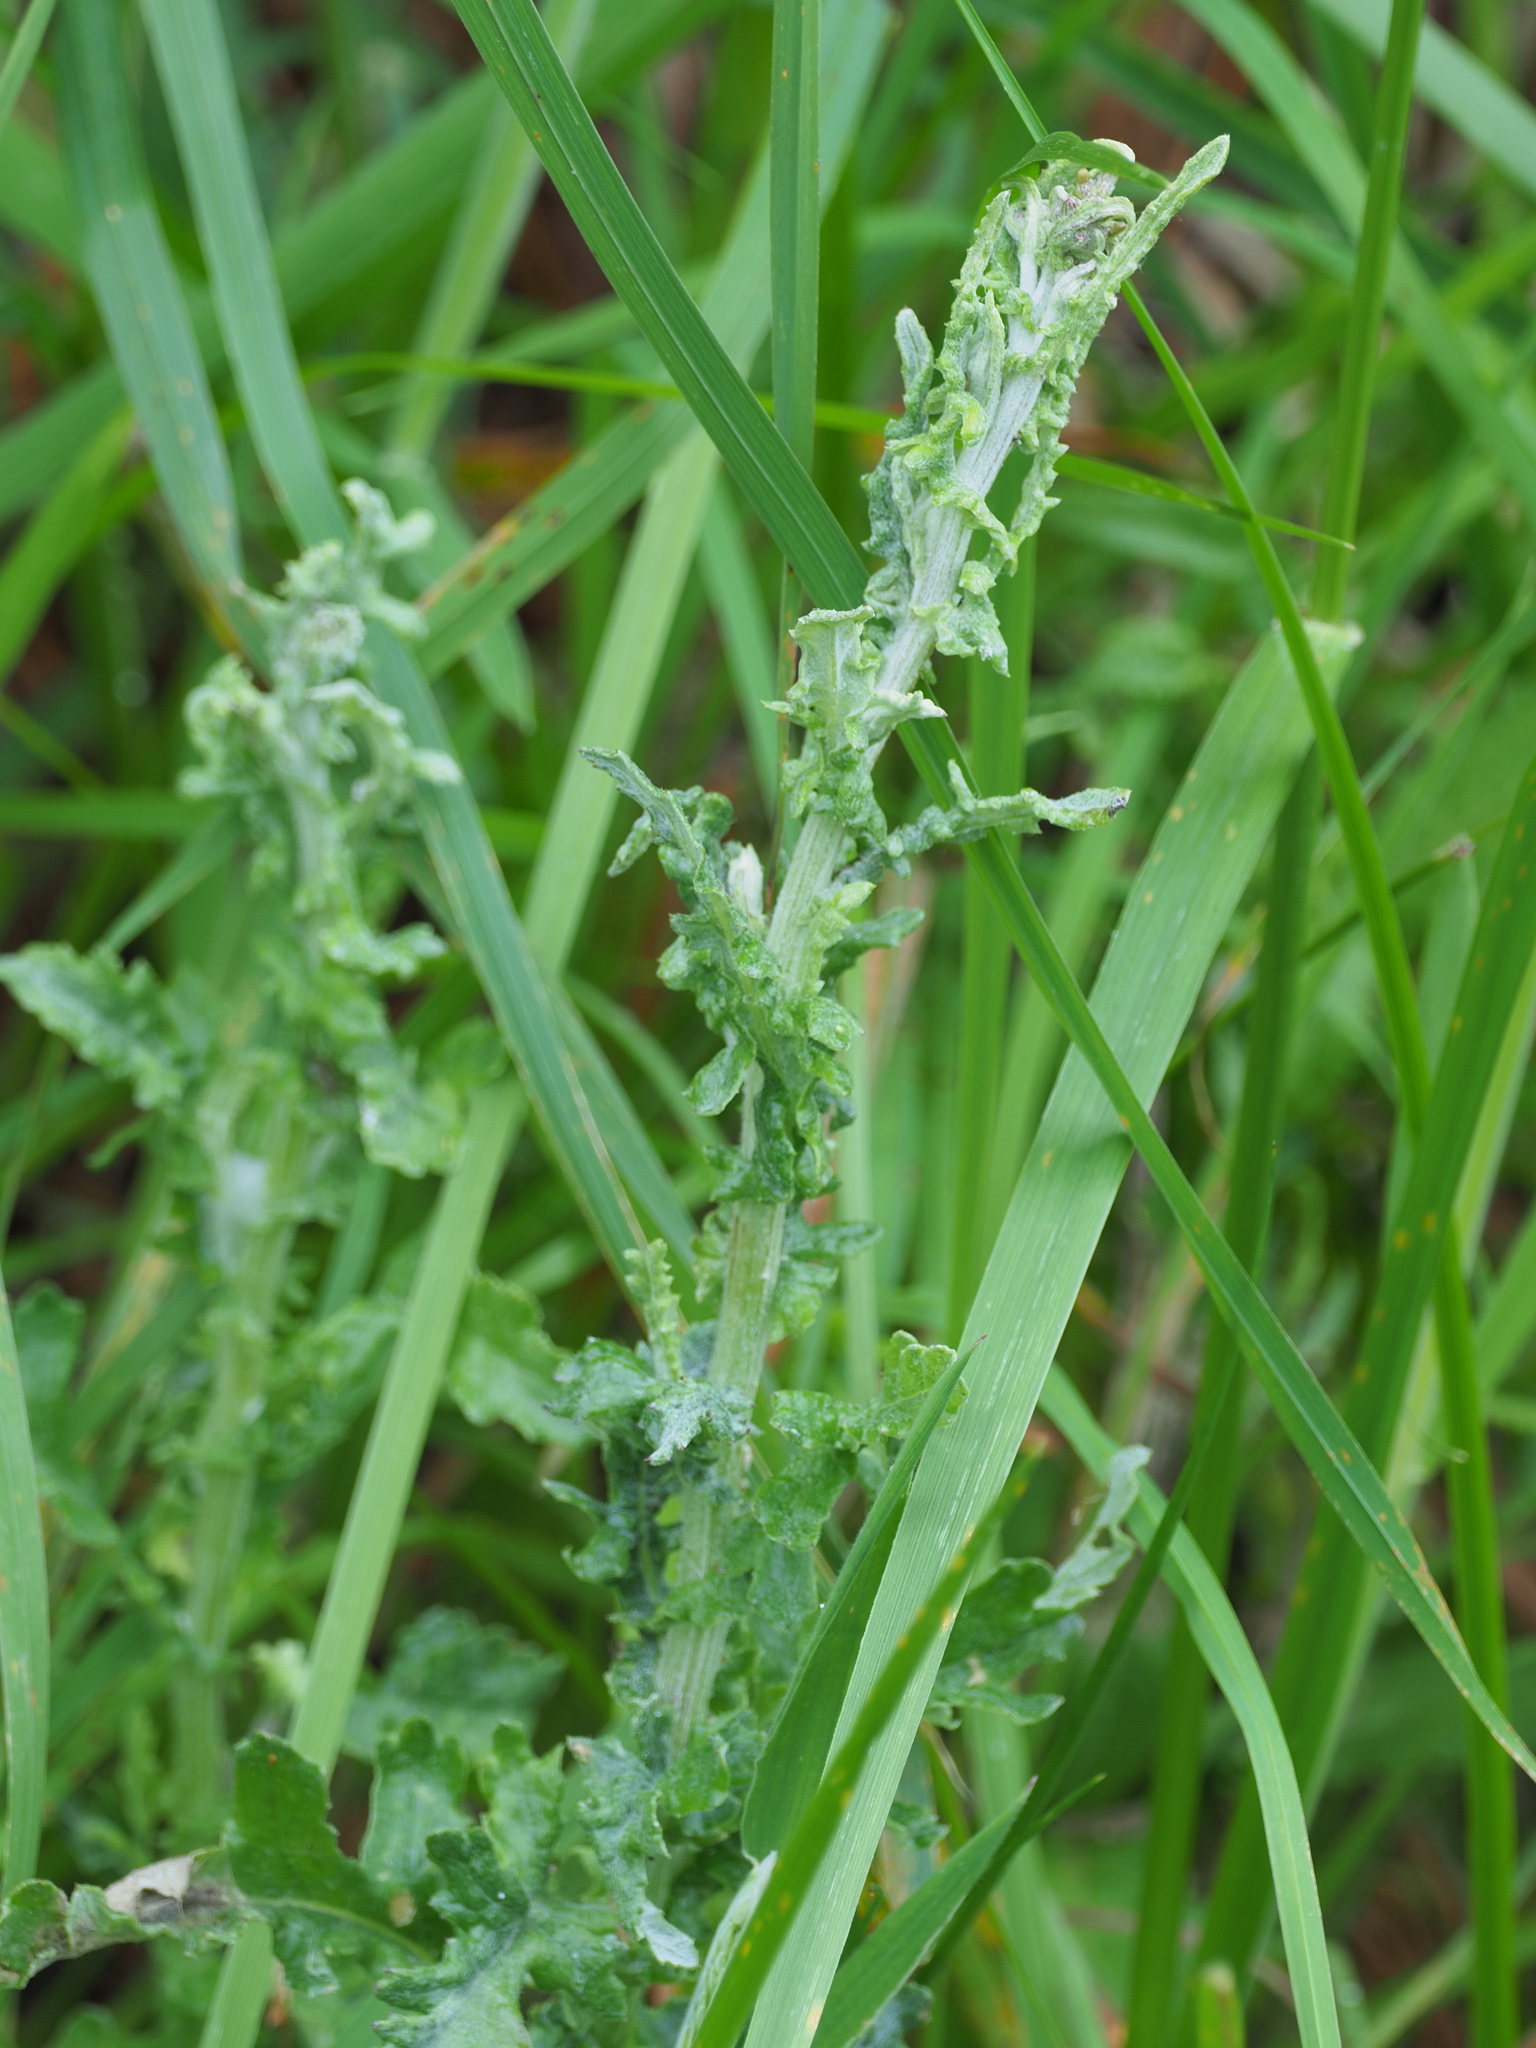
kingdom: Plantae
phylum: Tracheophyta
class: Magnoliopsida
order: Asterales
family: Asteraceae
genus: Senecio
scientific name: Senecio glomeratus
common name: Cutleaf burnweed
